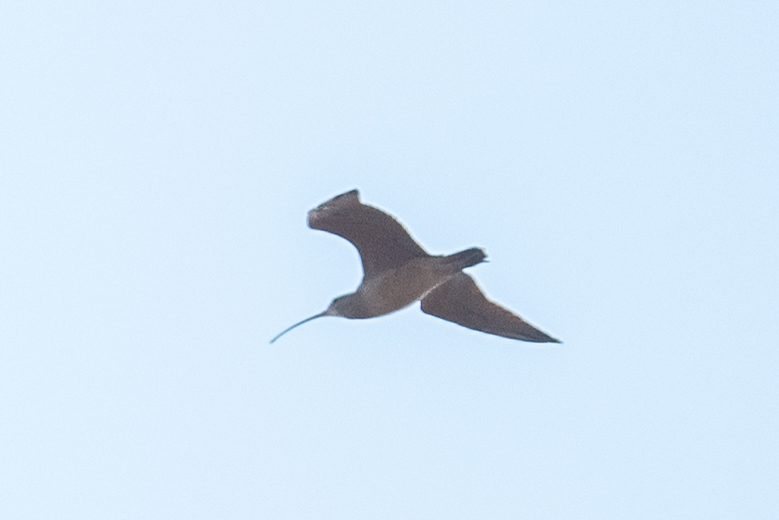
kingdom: Animalia
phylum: Chordata
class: Aves
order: Charadriiformes
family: Scolopacidae
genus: Numenius
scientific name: Numenius americanus
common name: Long-billed curlew
